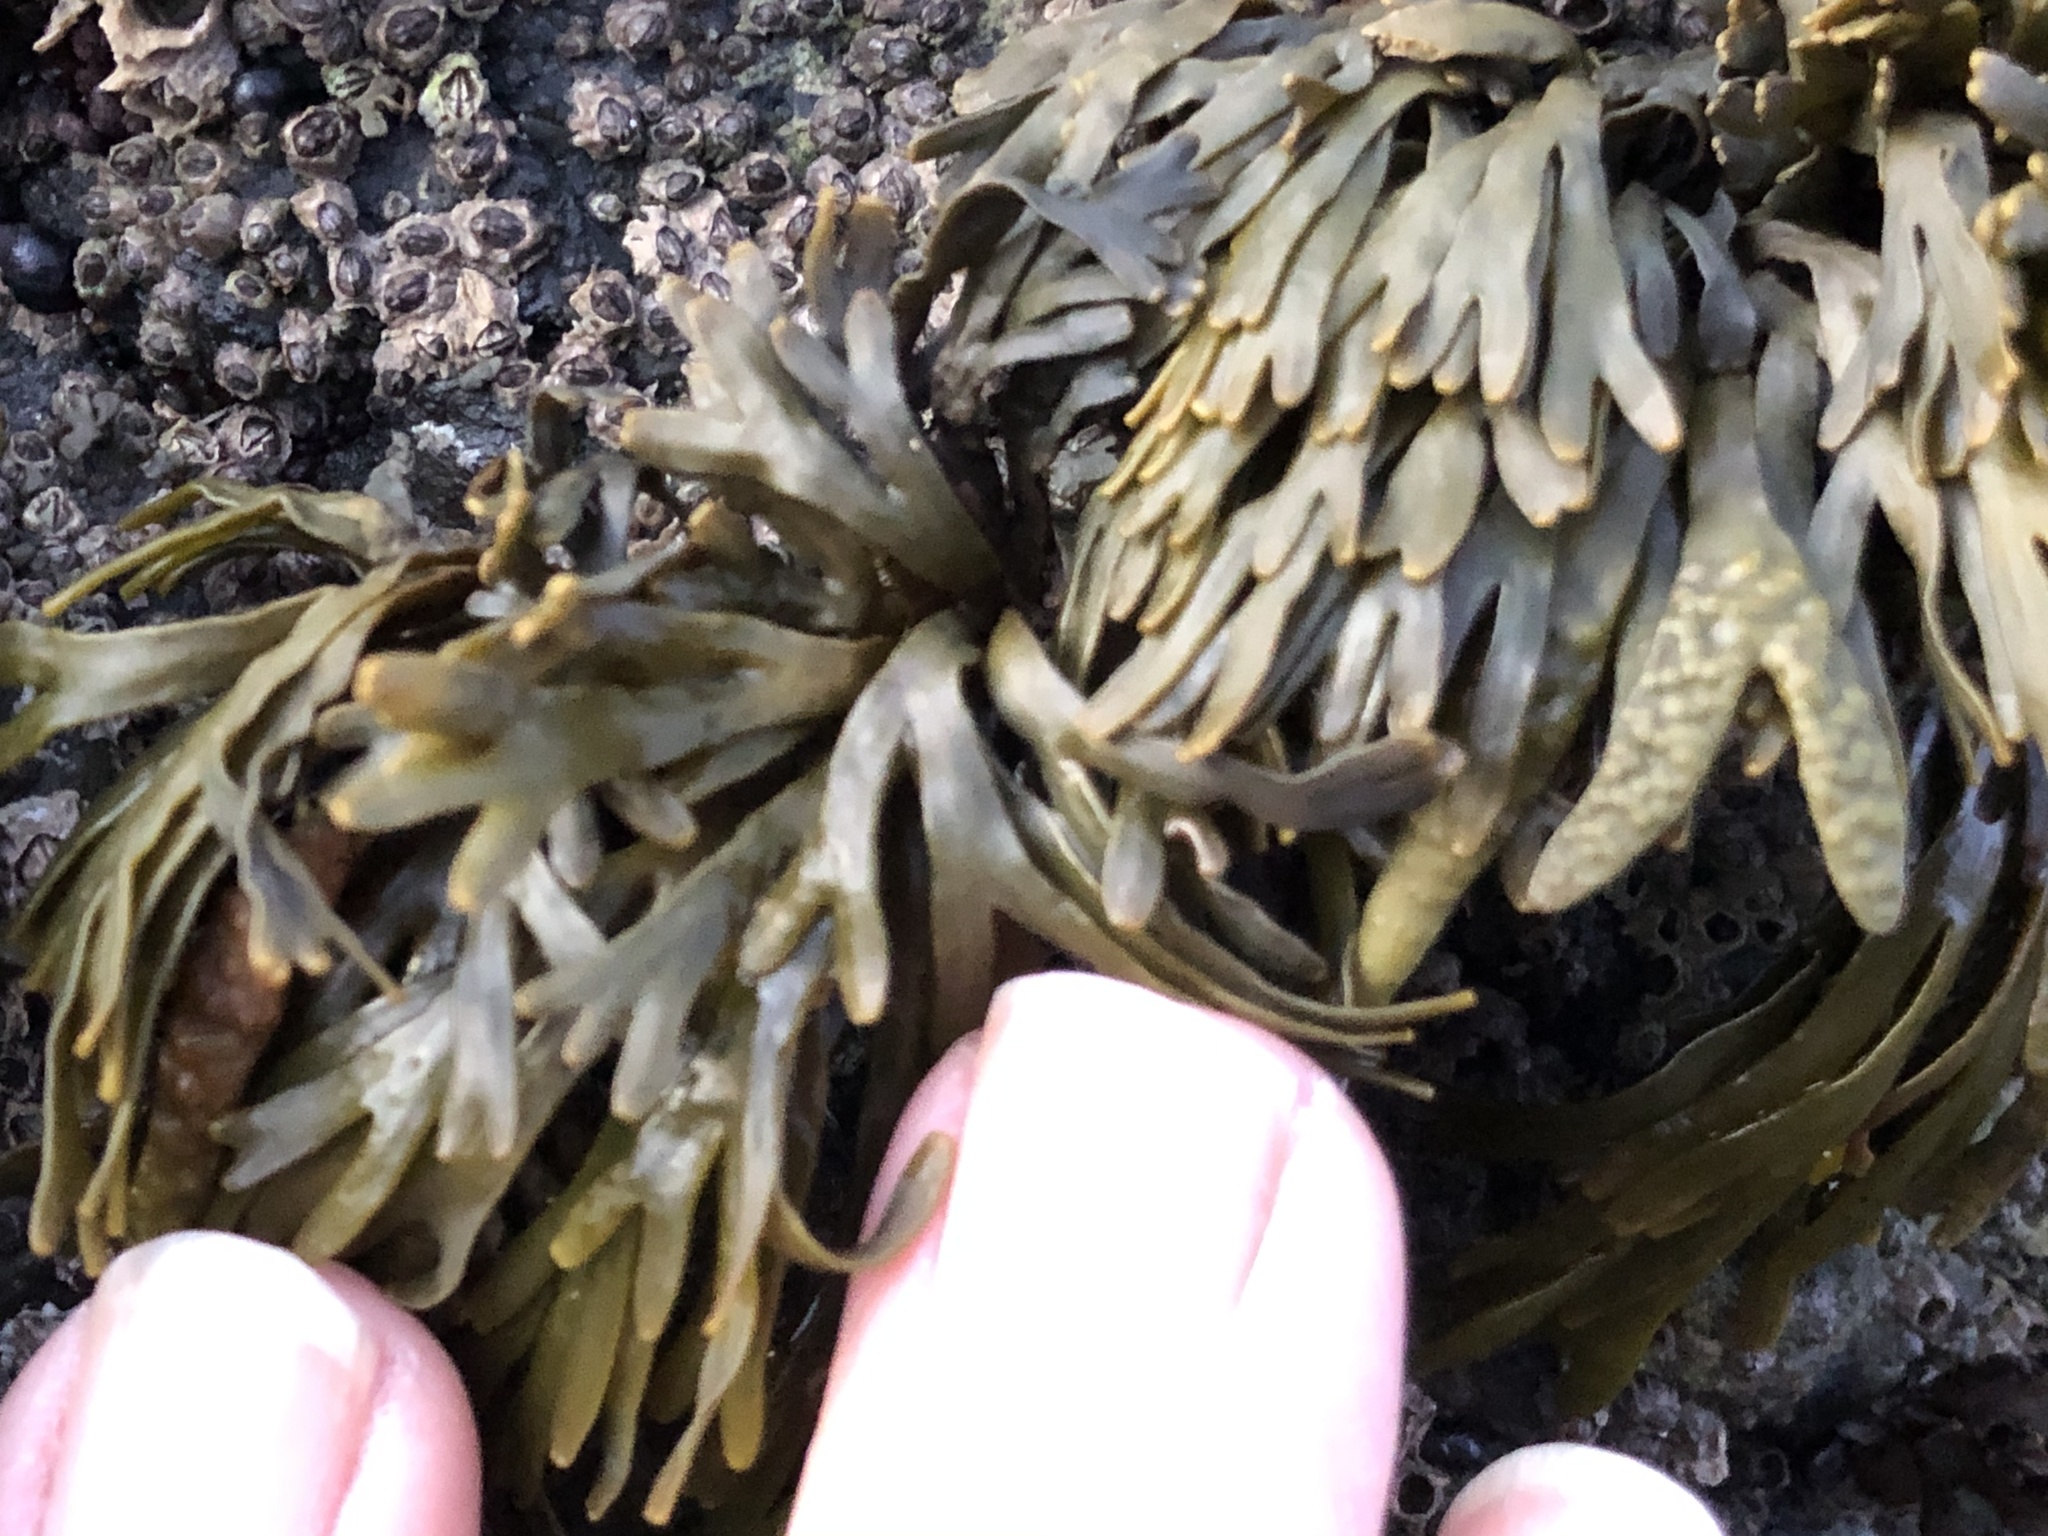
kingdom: Chromista
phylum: Ochrophyta
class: Phaeophyceae
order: Fucales
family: Fucaceae
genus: Pelvetiopsis
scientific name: Pelvetiopsis limitata
